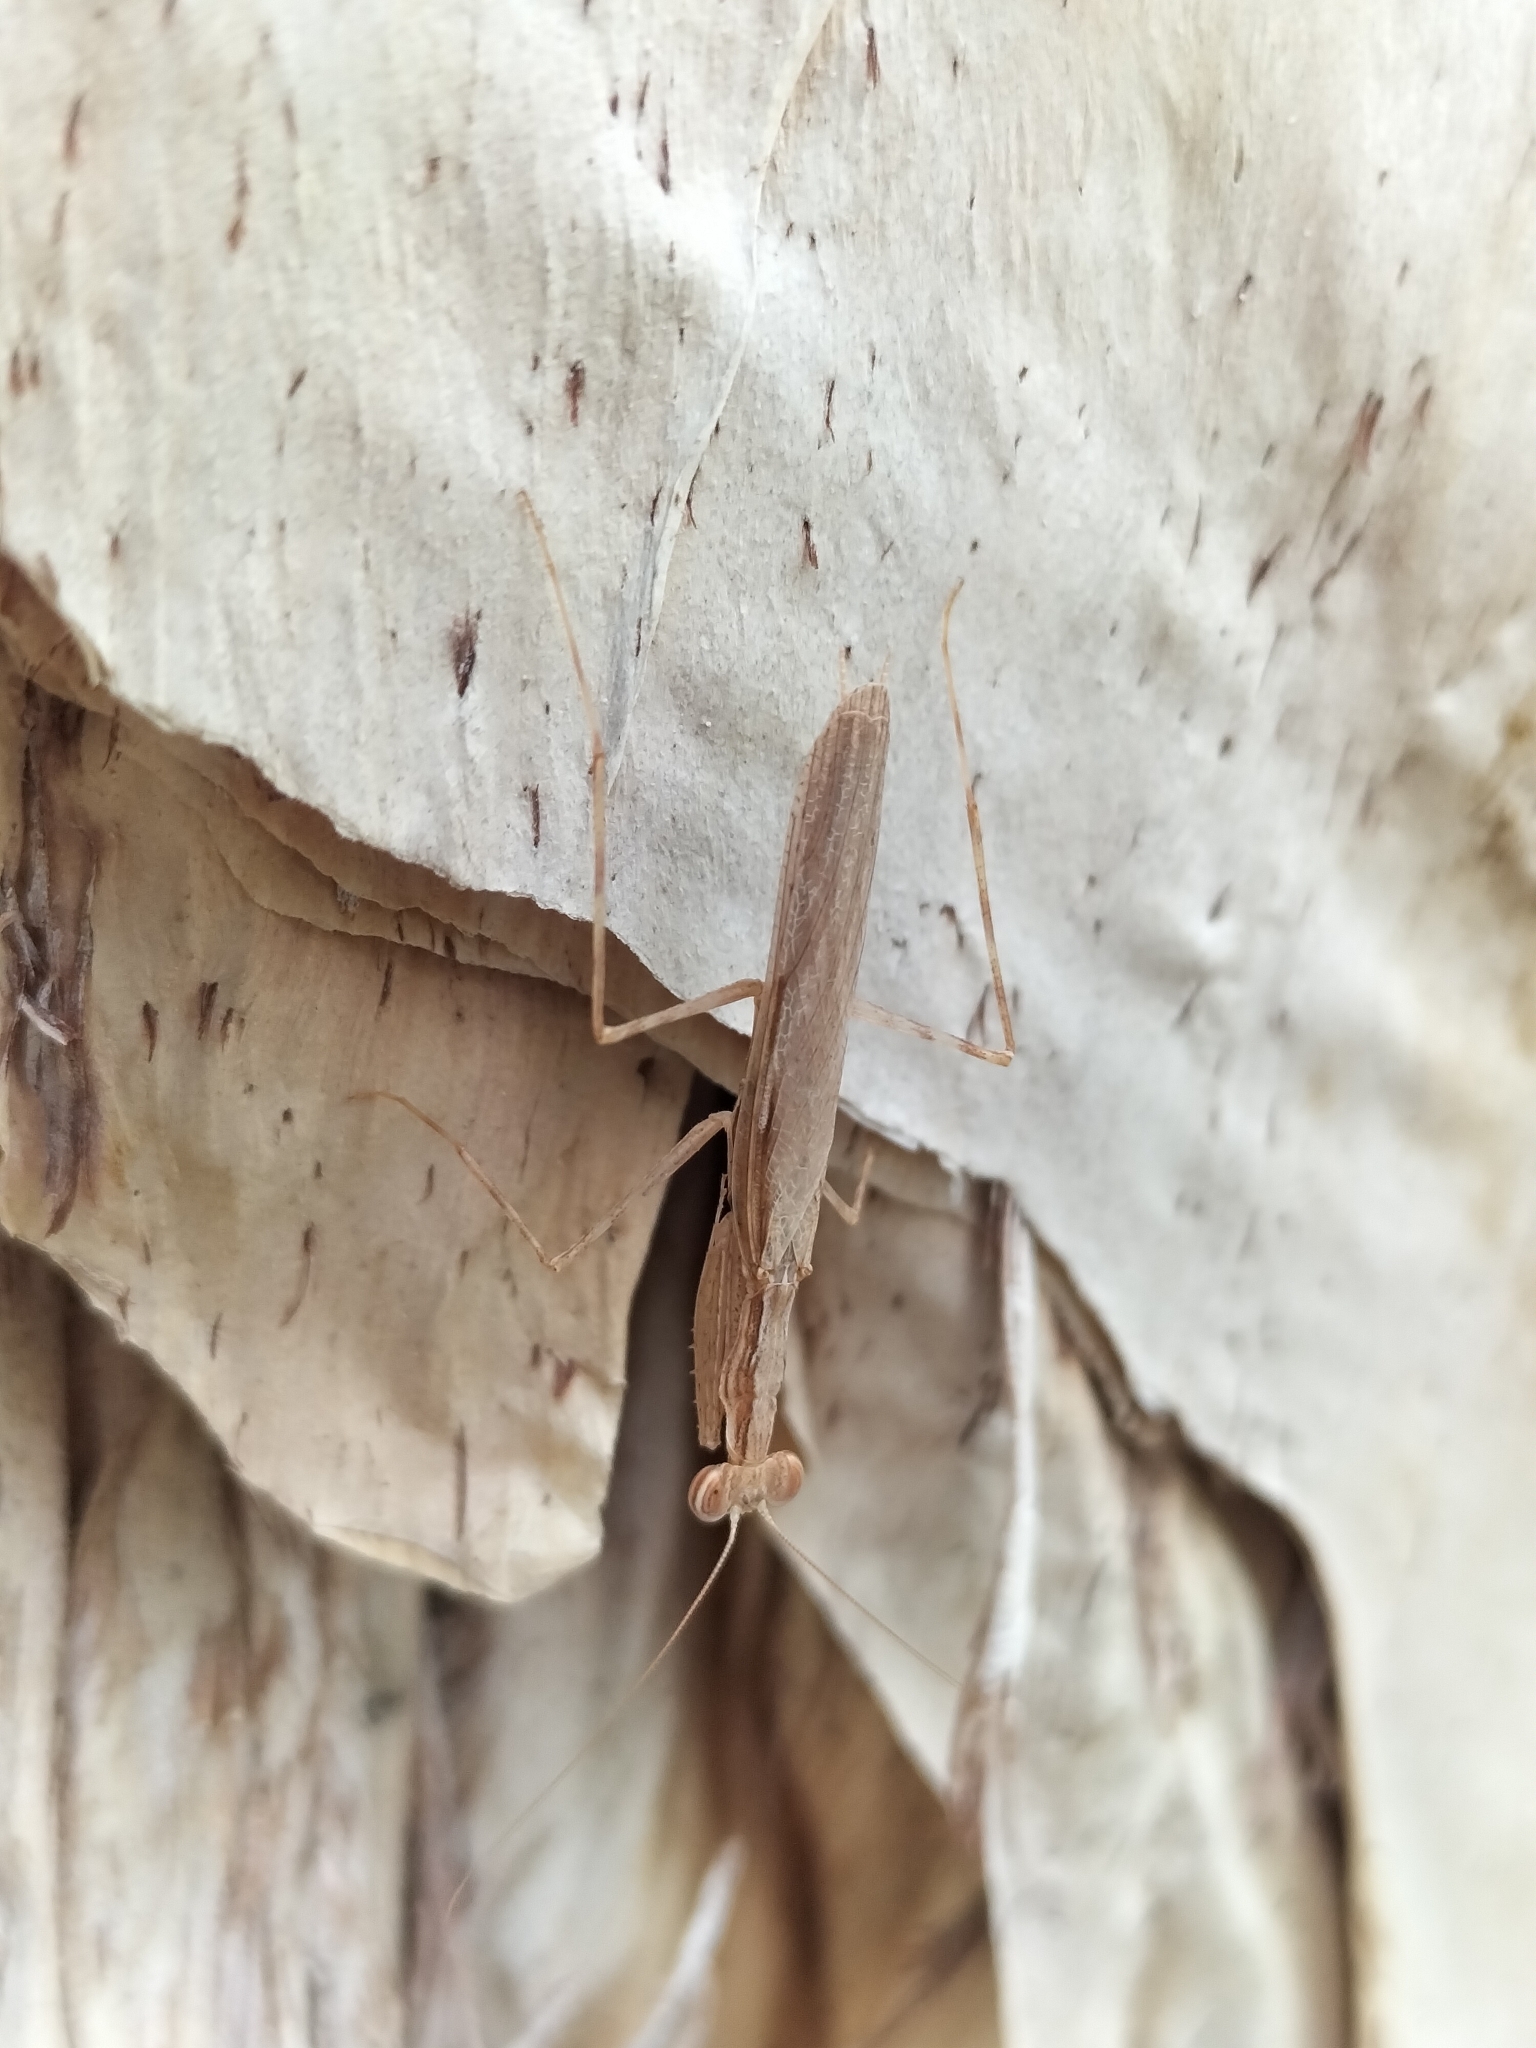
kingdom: Animalia
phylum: Arthropoda
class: Insecta
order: Mantodea
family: Nanomantidae
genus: Ima
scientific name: Ima fusca
